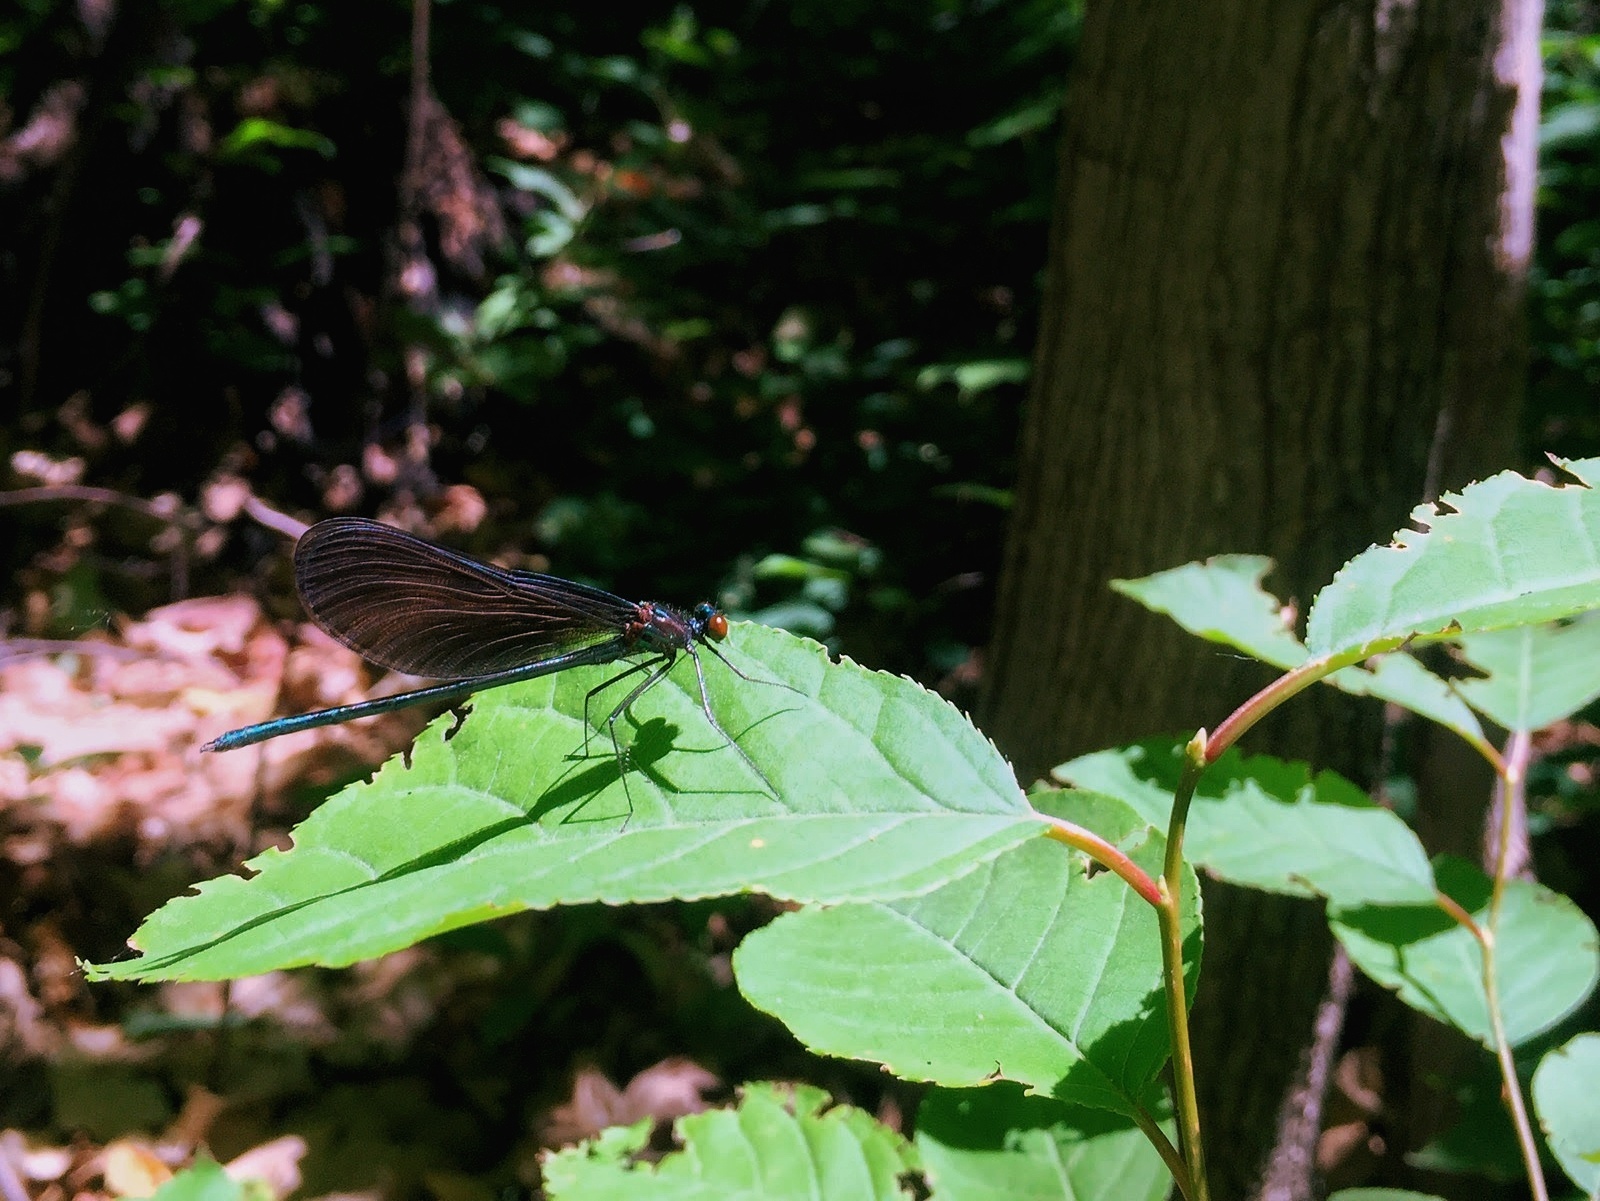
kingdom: Animalia
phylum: Arthropoda
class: Insecta
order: Odonata
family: Calopterygidae
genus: Calopteryx
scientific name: Calopteryx maculata
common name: Ebony jewelwing
